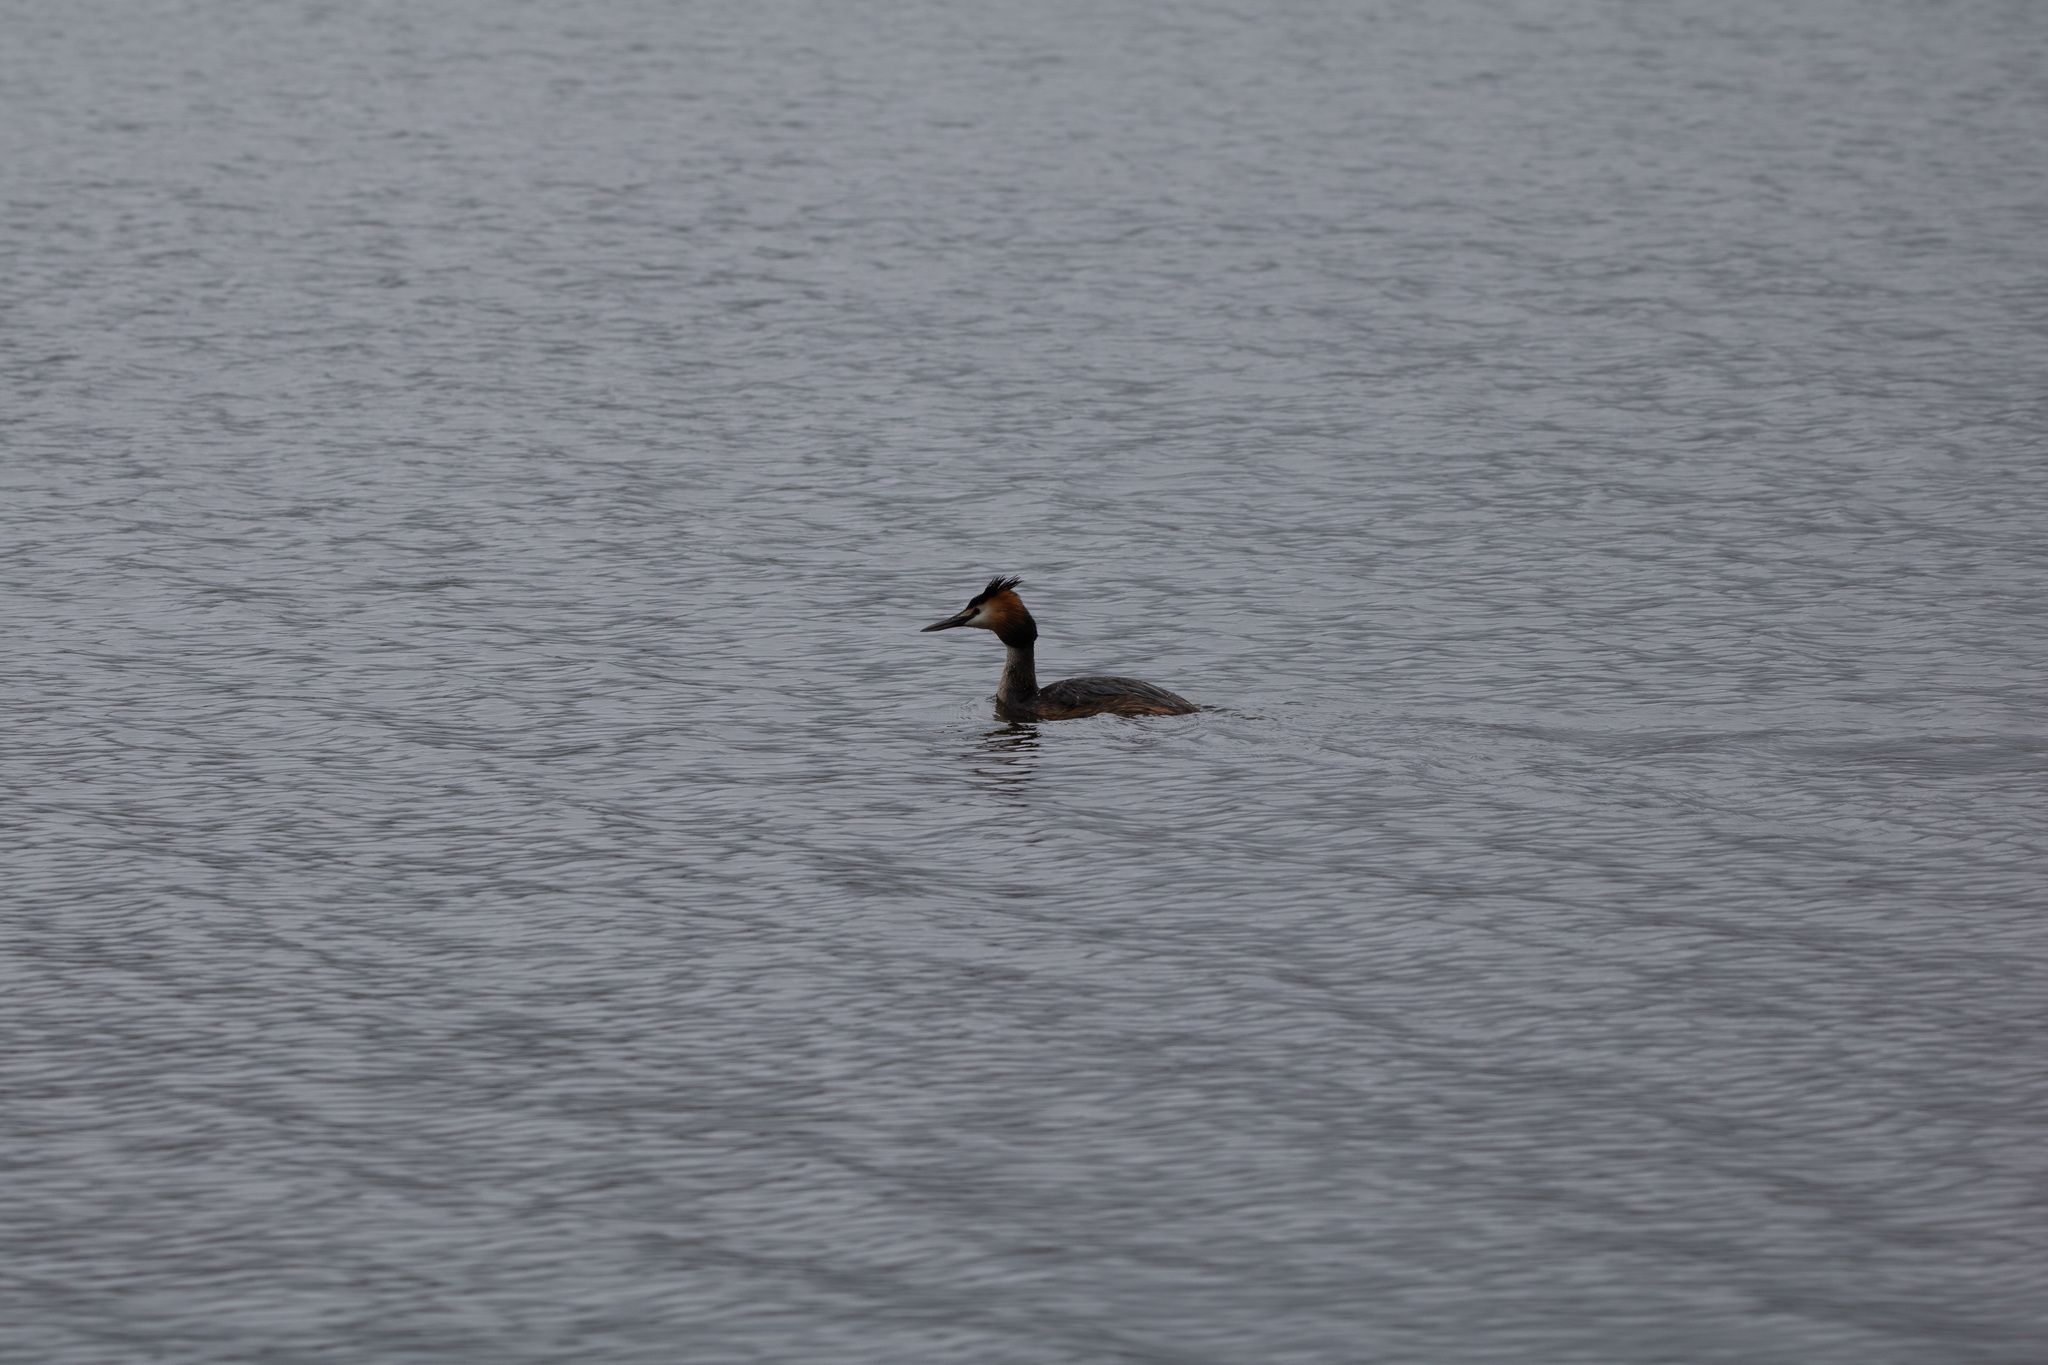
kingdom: Animalia
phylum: Chordata
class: Aves
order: Podicipediformes
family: Podicipedidae
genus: Podiceps
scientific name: Podiceps cristatus
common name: Great crested grebe
